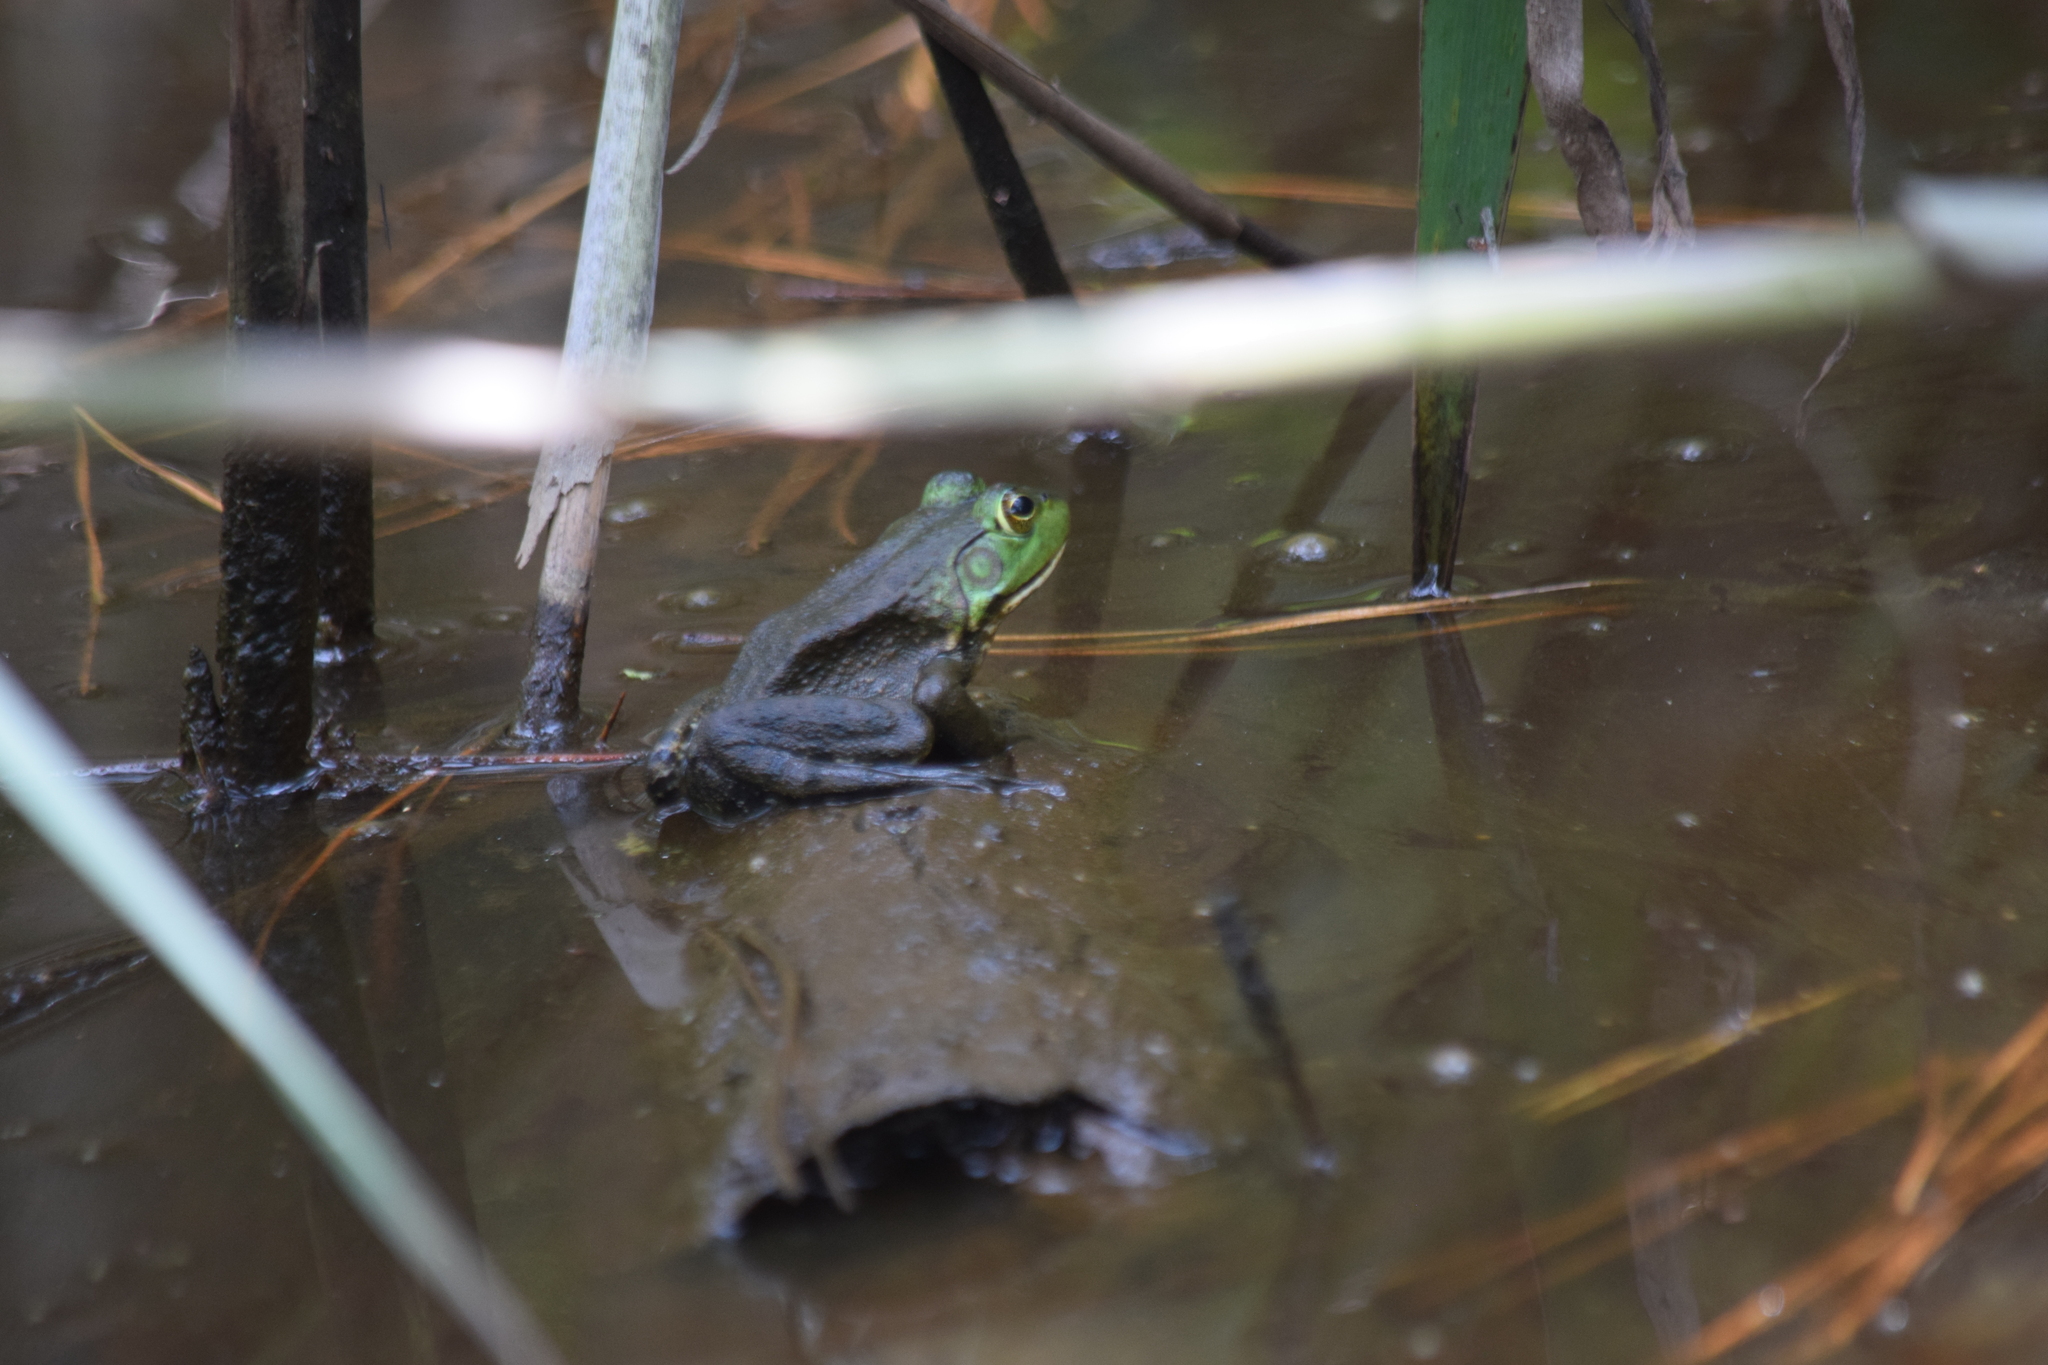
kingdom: Animalia
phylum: Chordata
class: Amphibia
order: Anura
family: Ranidae
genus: Lithobates
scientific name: Lithobates catesbeianus
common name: American bullfrog
